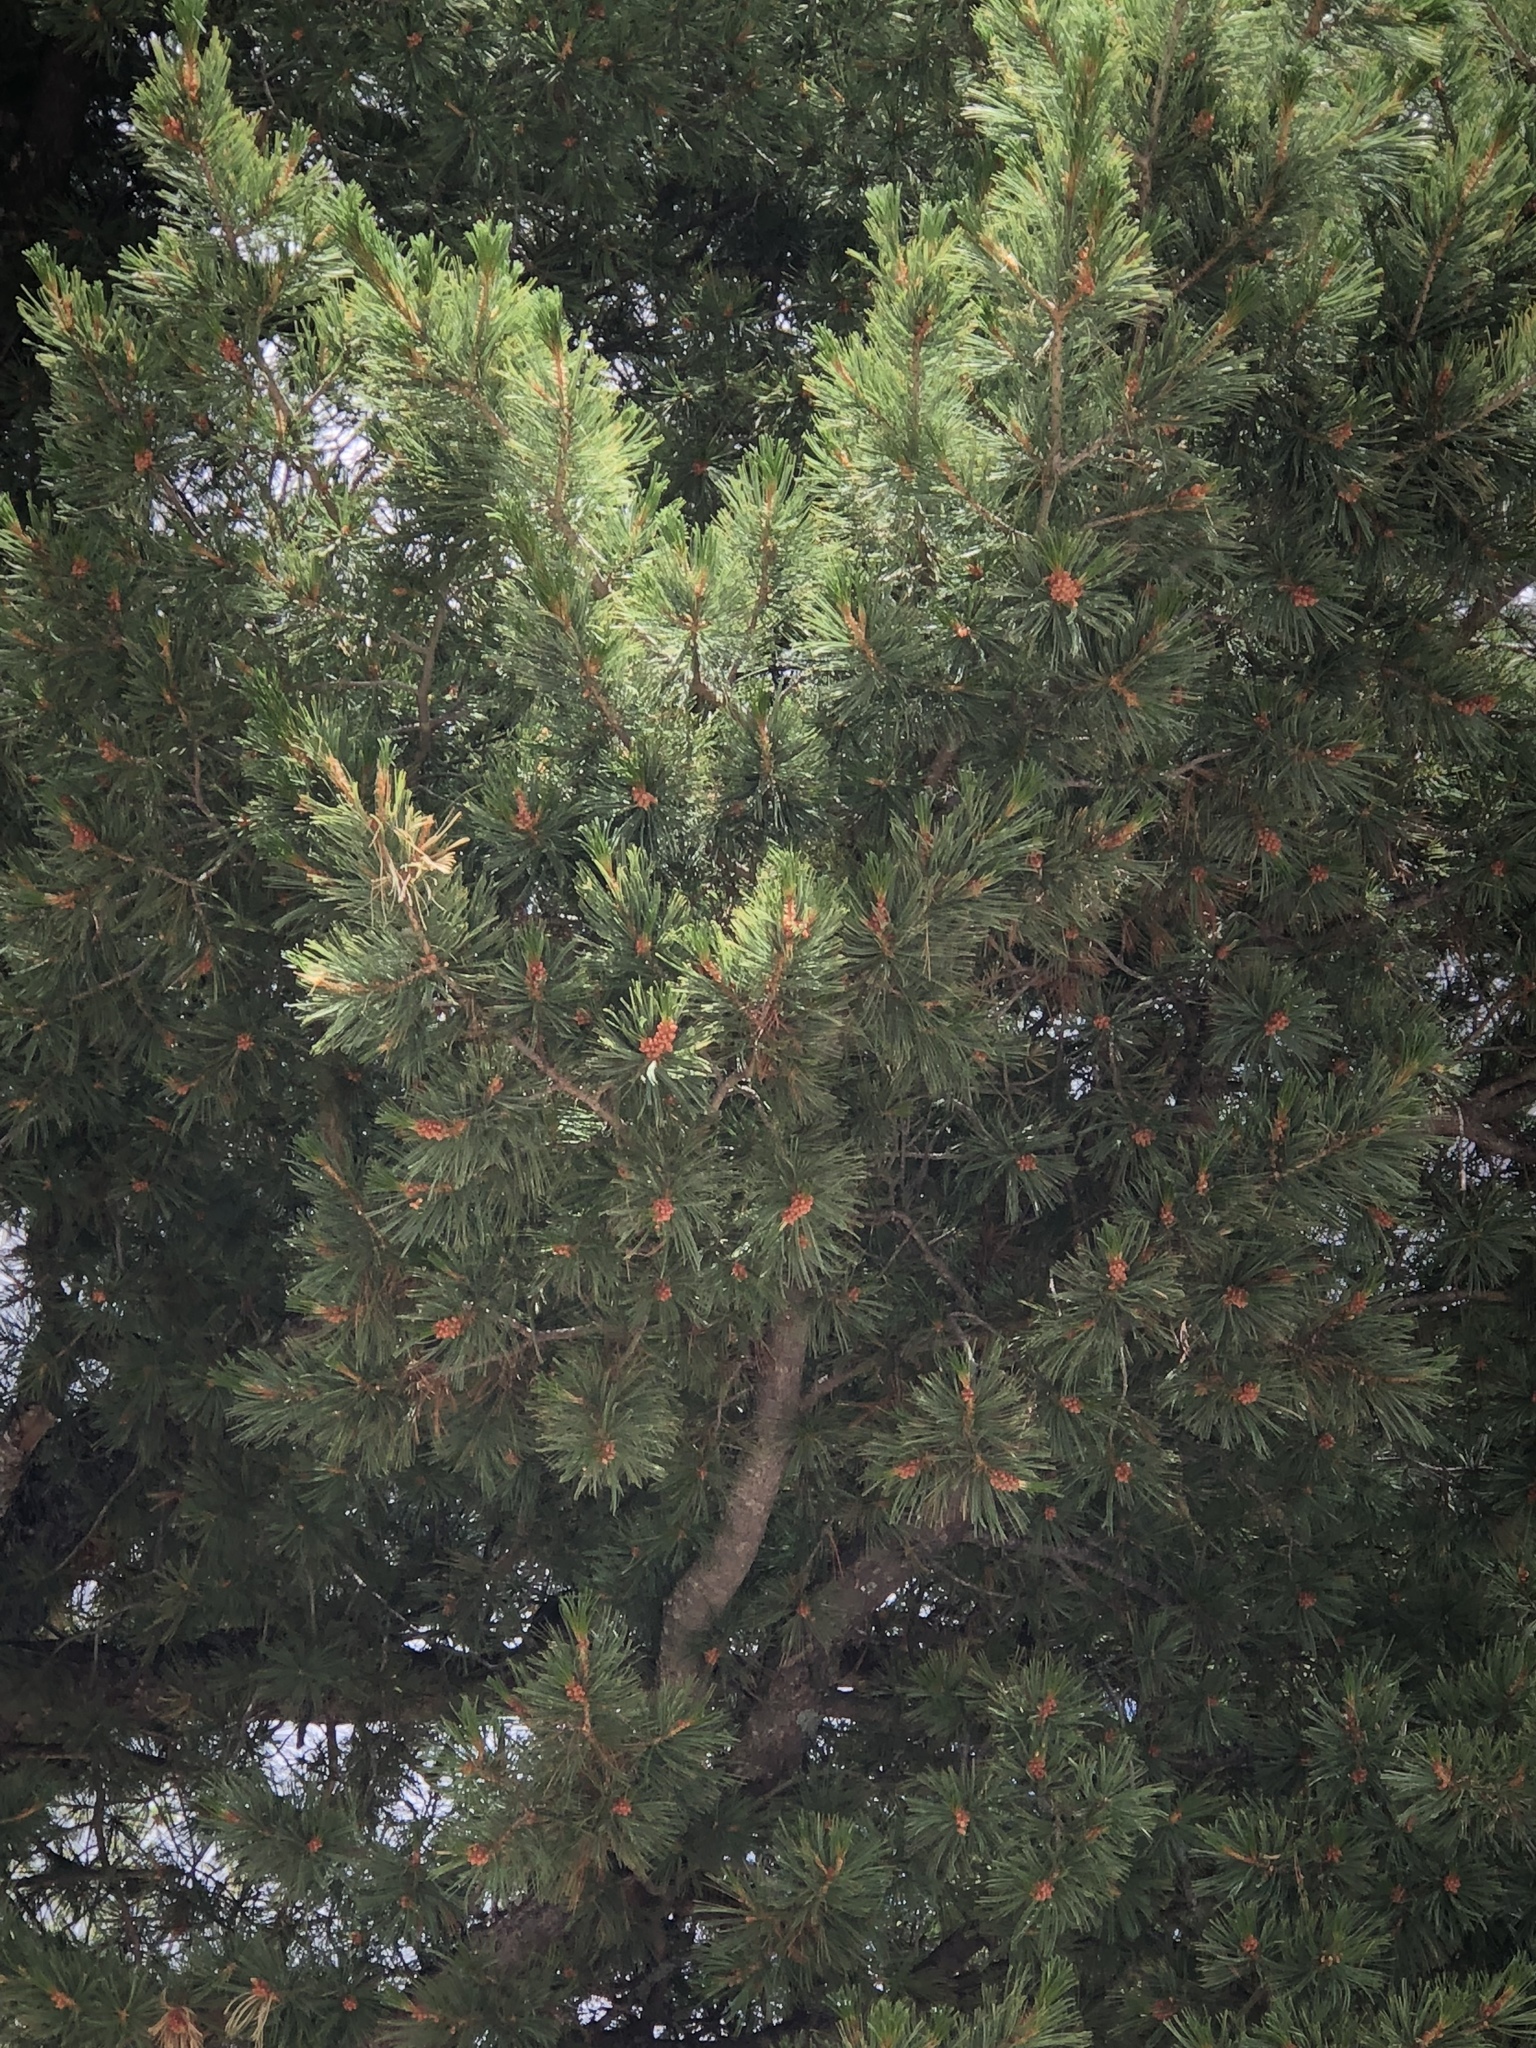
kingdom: Plantae
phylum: Tracheophyta
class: Pinopsida
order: Pinales
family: Pinaceae
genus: Pinus
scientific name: Pinus strobiformis
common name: Southwestern white pine
